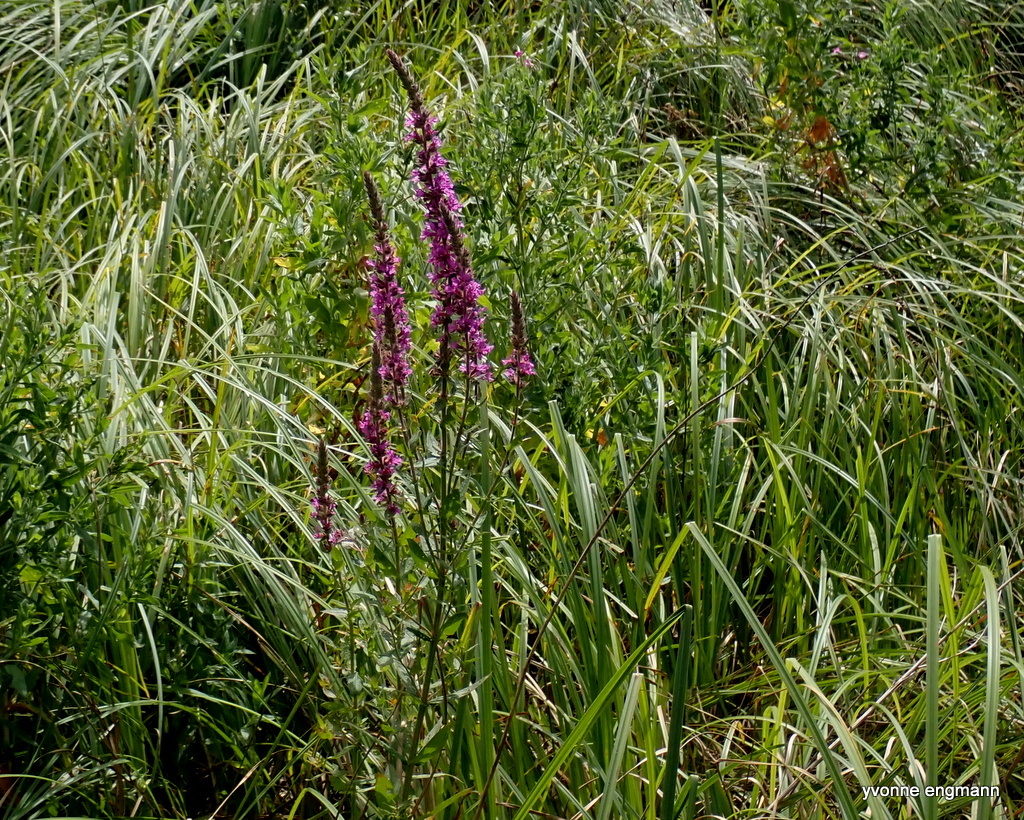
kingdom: Plantae
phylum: Tracheophyta
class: Magnoliopsida
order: Myrtales
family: Lythraceae
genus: Lythrum
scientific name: Lythrum salicaria
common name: Purple loosestrife
